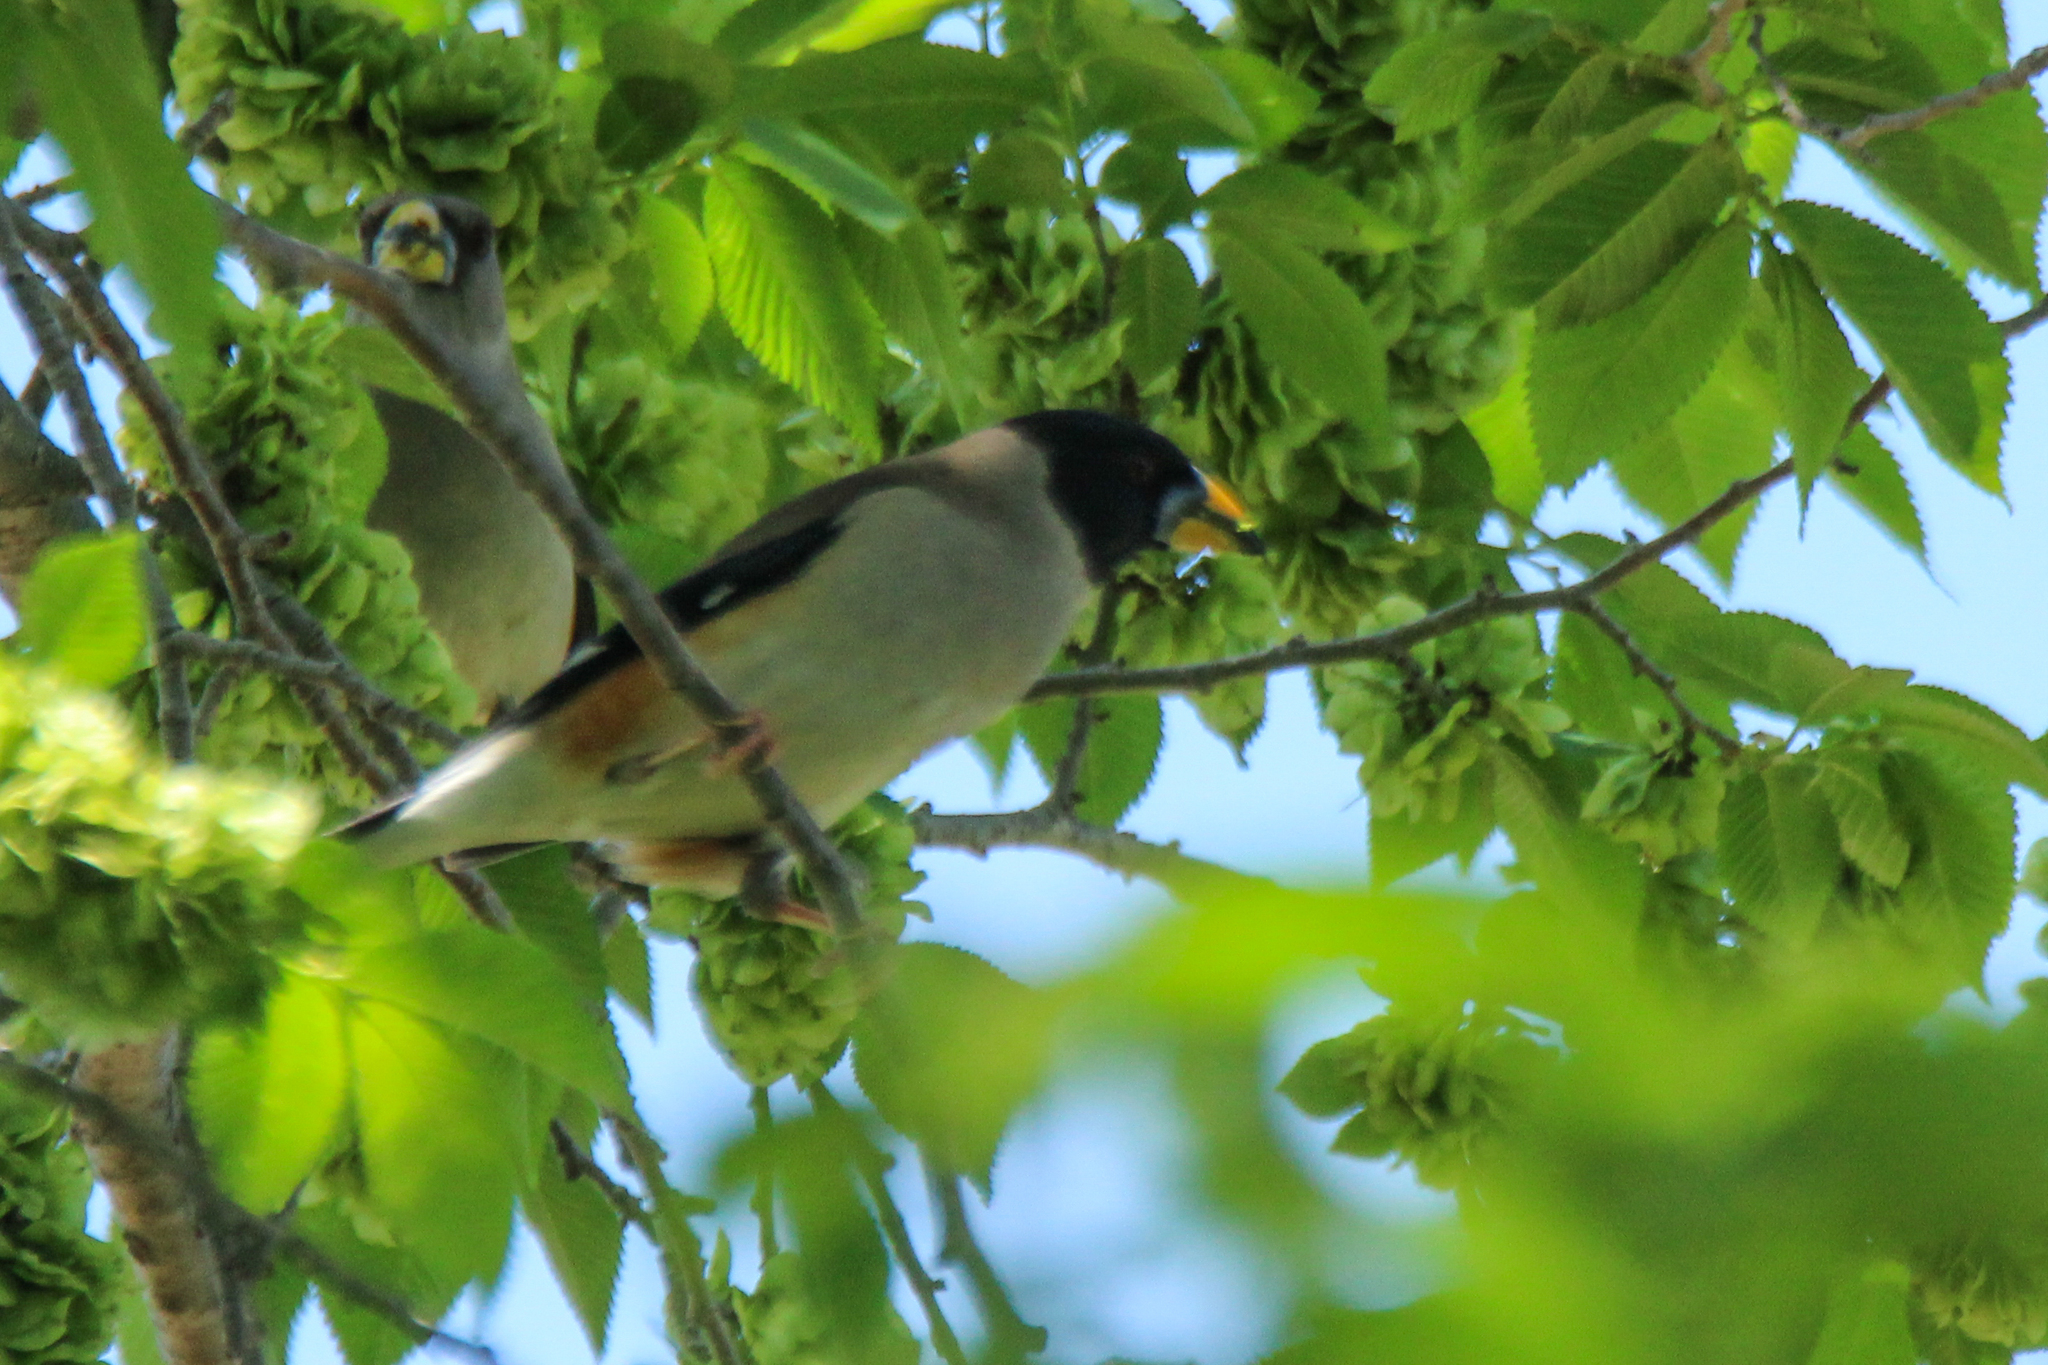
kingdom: Animalia
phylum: Chordata
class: Aves
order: Passeriformes
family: Fringillidae
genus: Eophona
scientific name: Eophona migratoria
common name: Yellow-billed grosbeak
